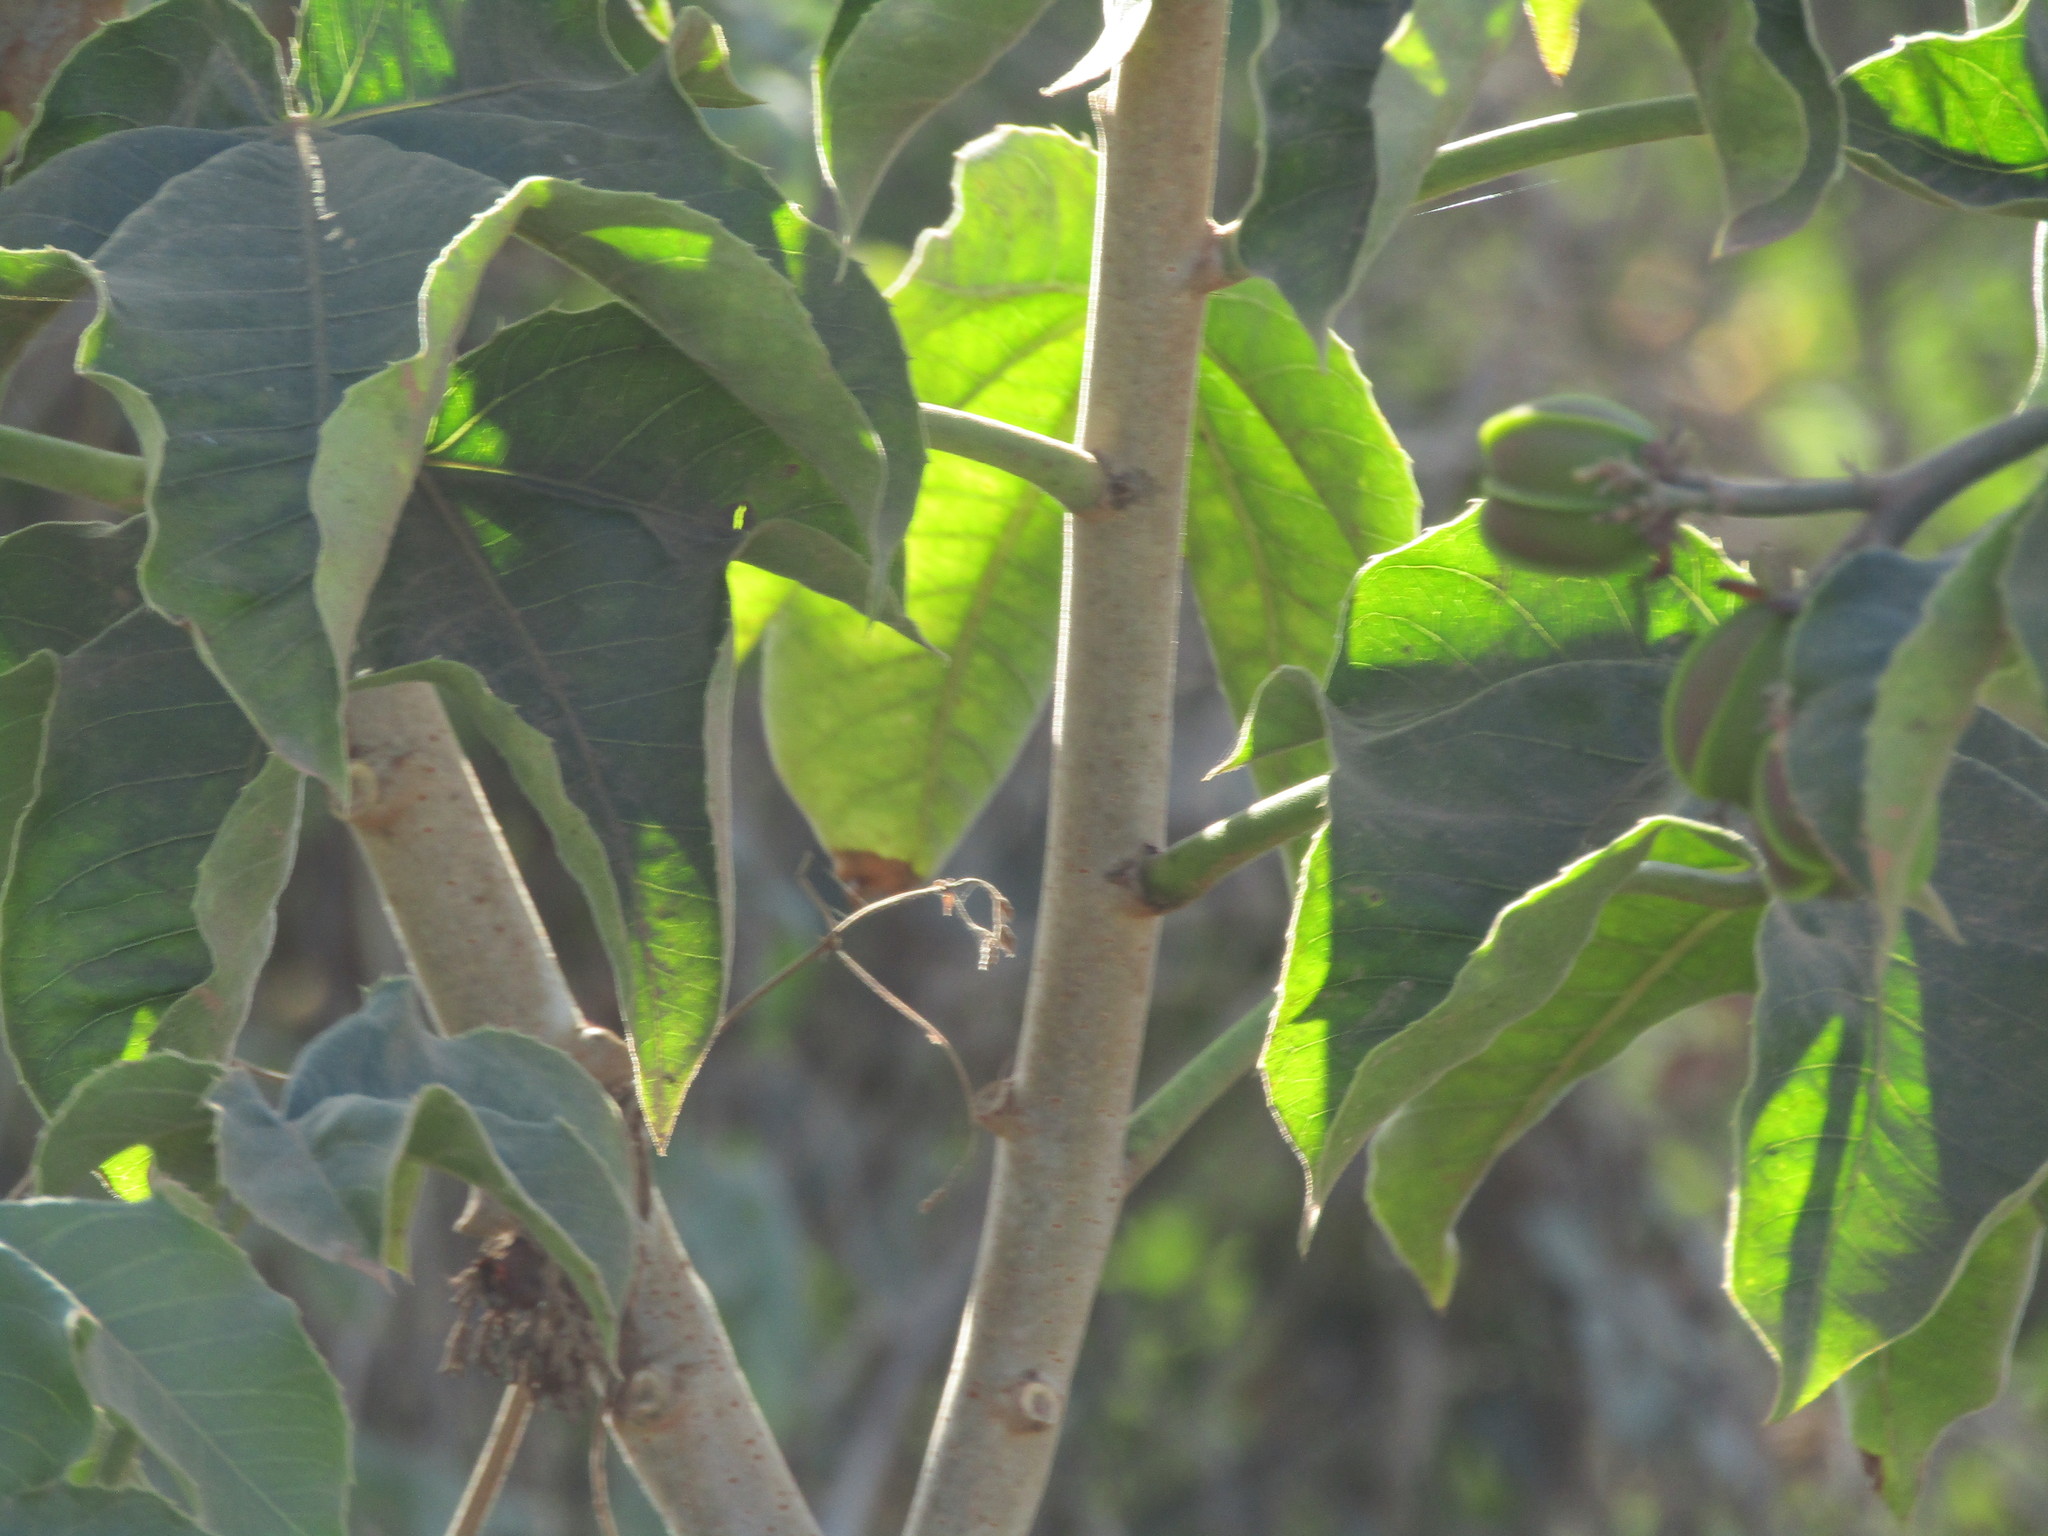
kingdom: Plantae
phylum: Tracheophyta
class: Magnoliopsida
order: Malpighiales
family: Euphorbiaceae
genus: Jatropha
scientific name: Jatropha mollissima
